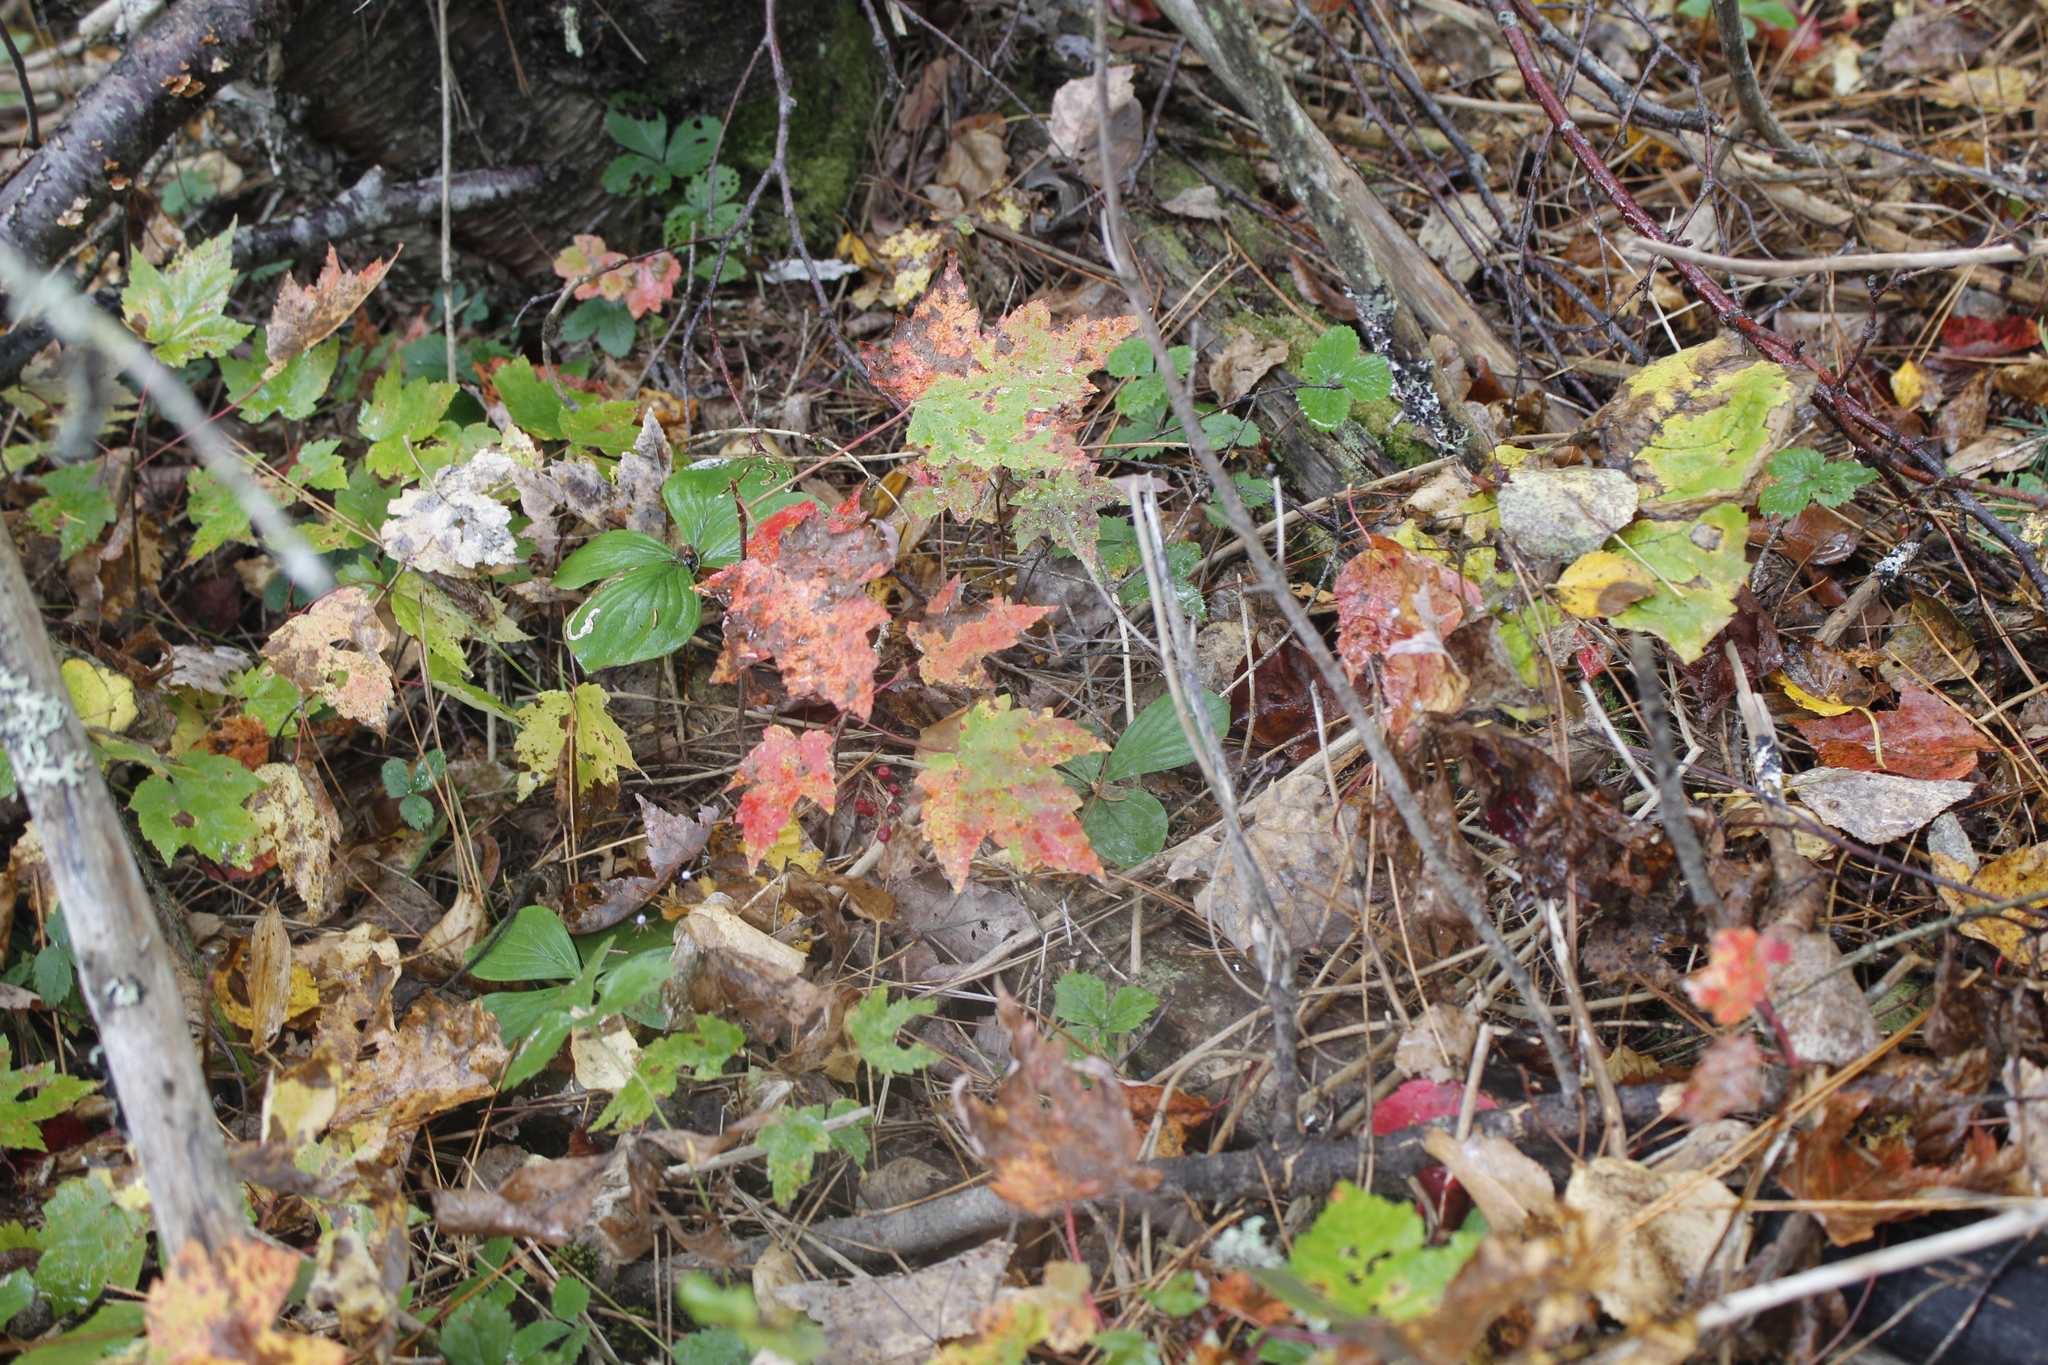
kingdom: Plantae
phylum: Tracheophyta
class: Magnoliopsida
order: Sapindales
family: Sapindaceae
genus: Acer
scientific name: Acer rubrum
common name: Red maple
